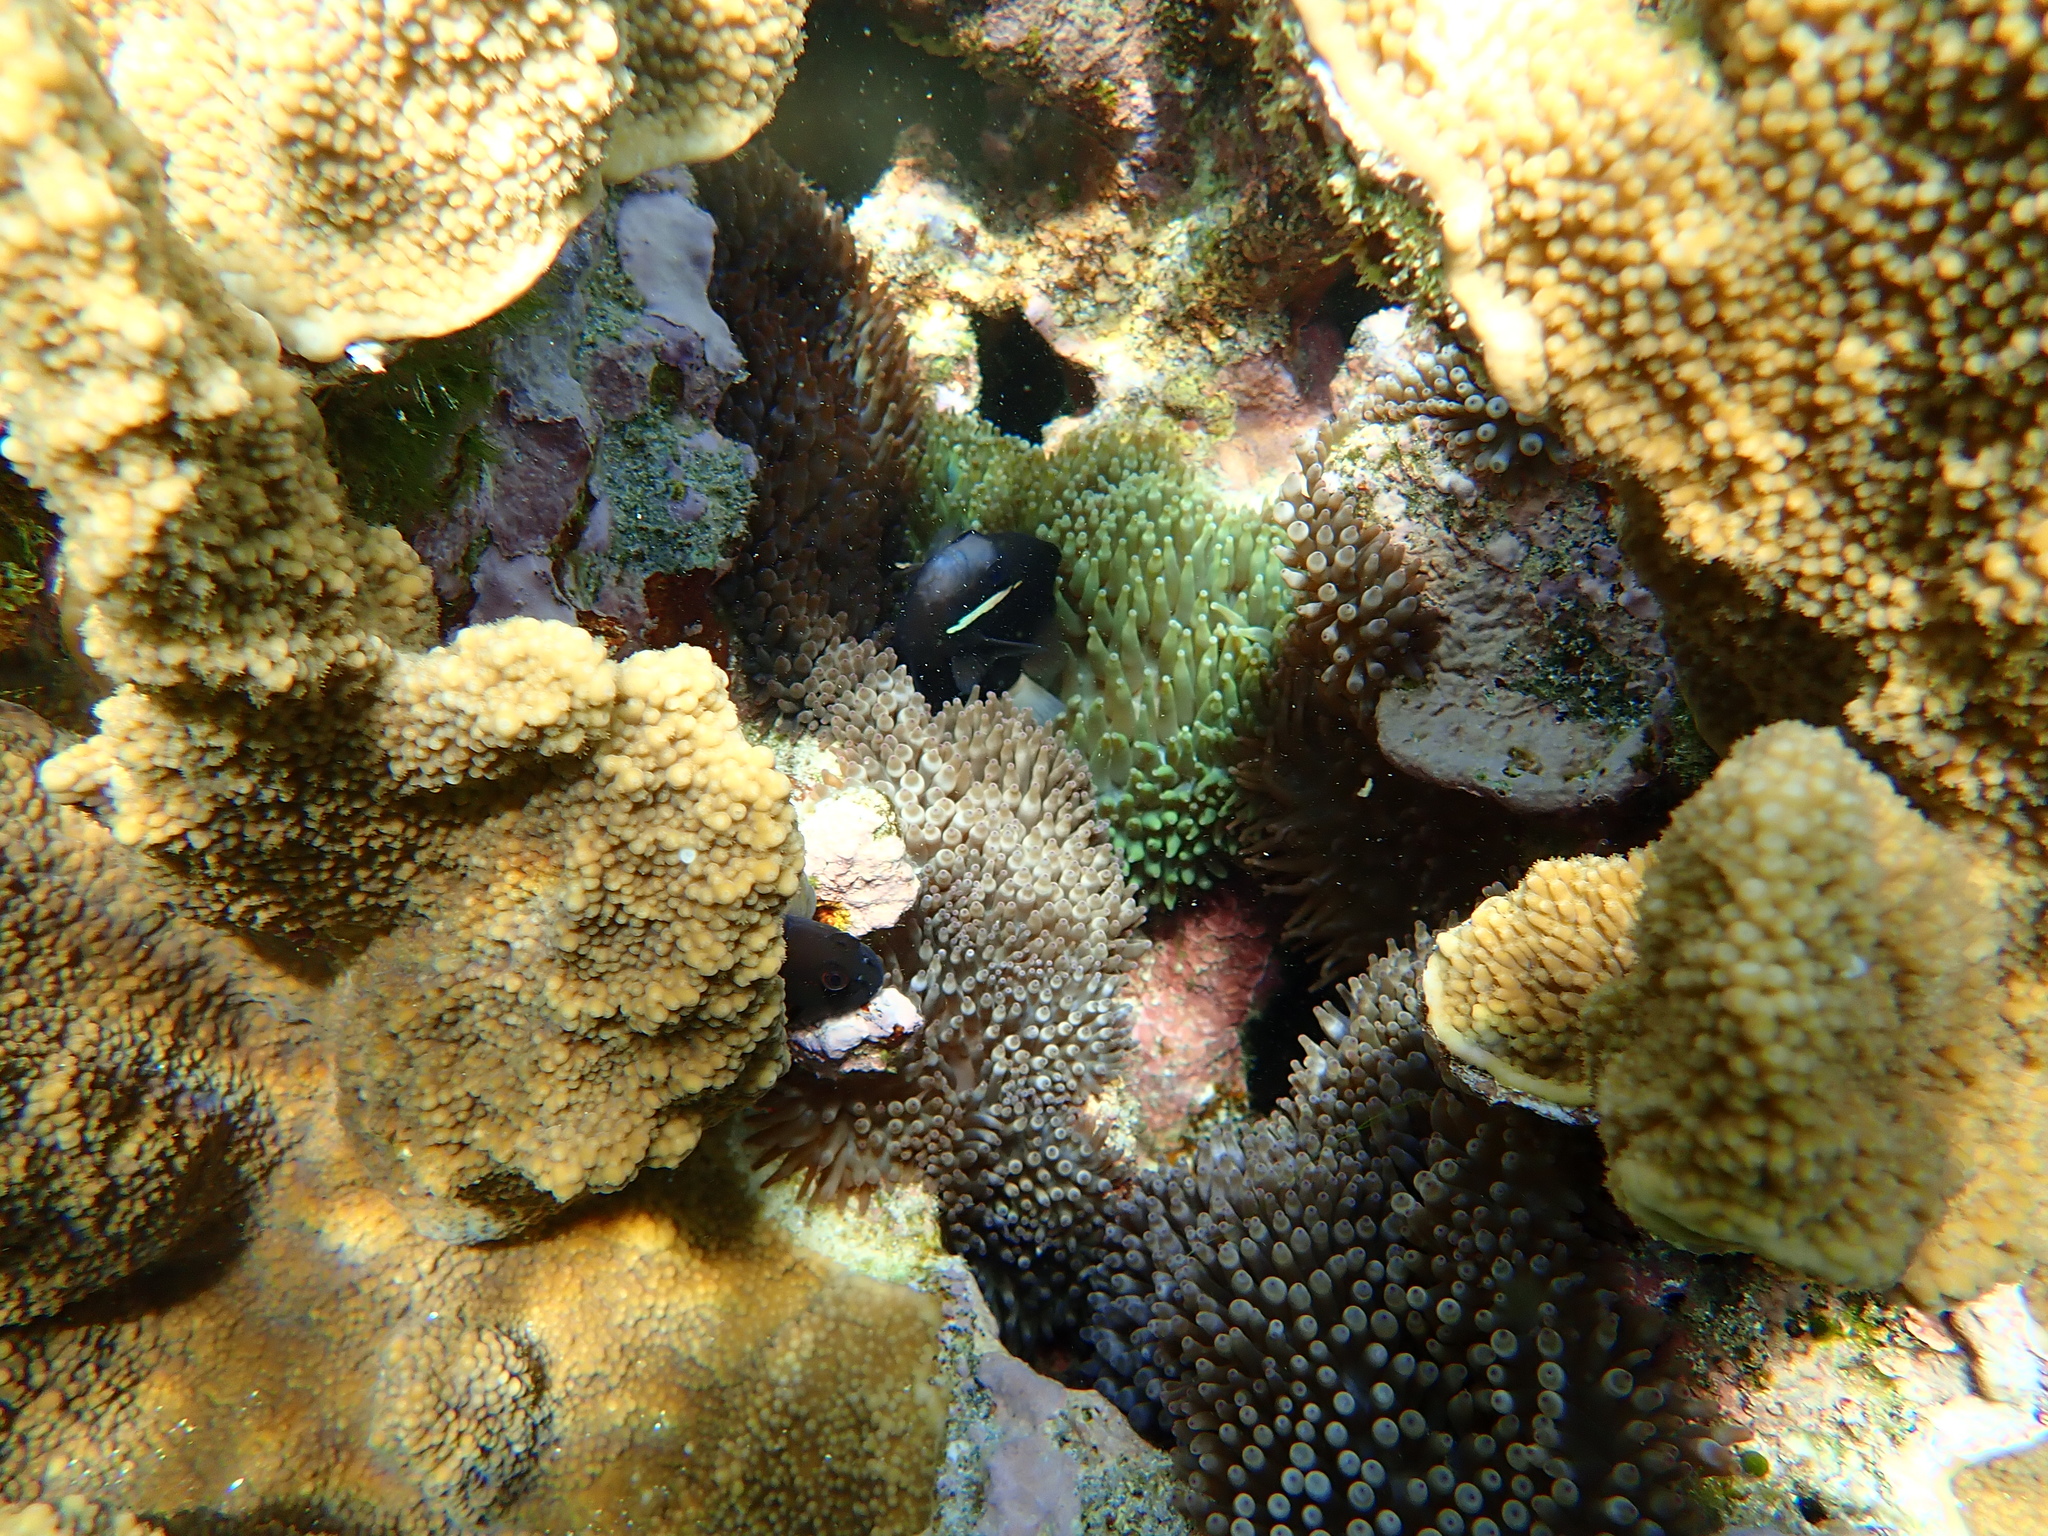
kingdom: Animalia
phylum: Chordata
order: Perciformes
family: Pomacentridae
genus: Amphiprion
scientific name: Amphiprion mccullochi
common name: Mcculloch's anemonefish
